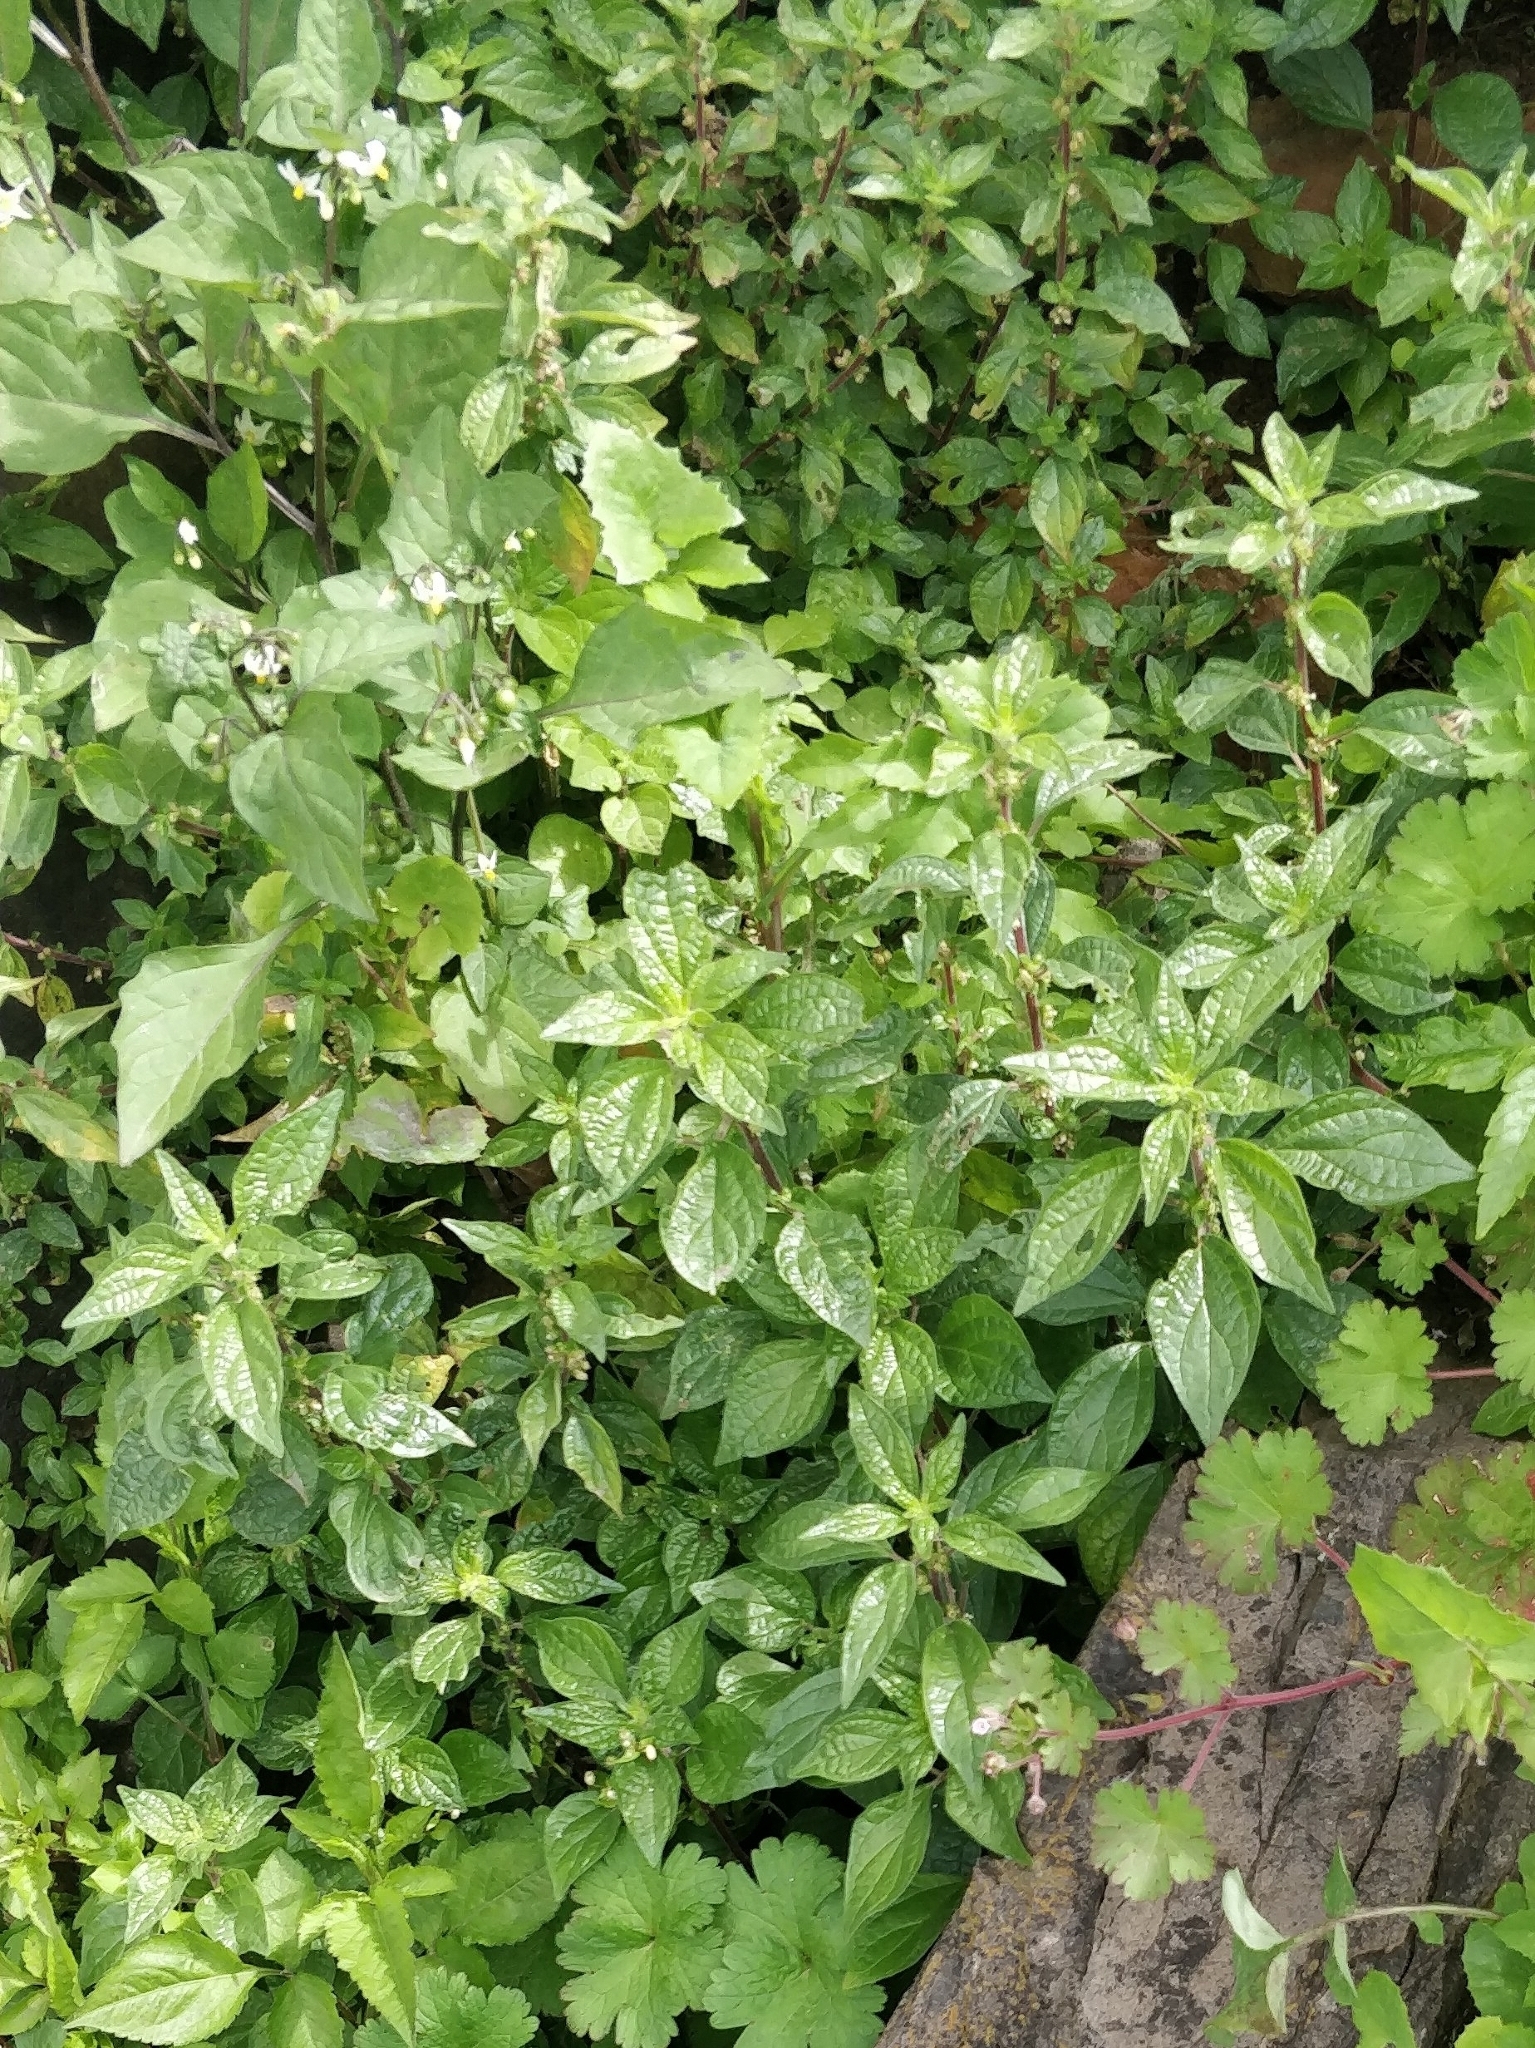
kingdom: Plantae
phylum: Tracheophyta
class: Magnoliopsida
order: Rosales
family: Urticaceae
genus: Parietaria
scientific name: Parietaria judaica
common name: Pellitory-of-the-wall
